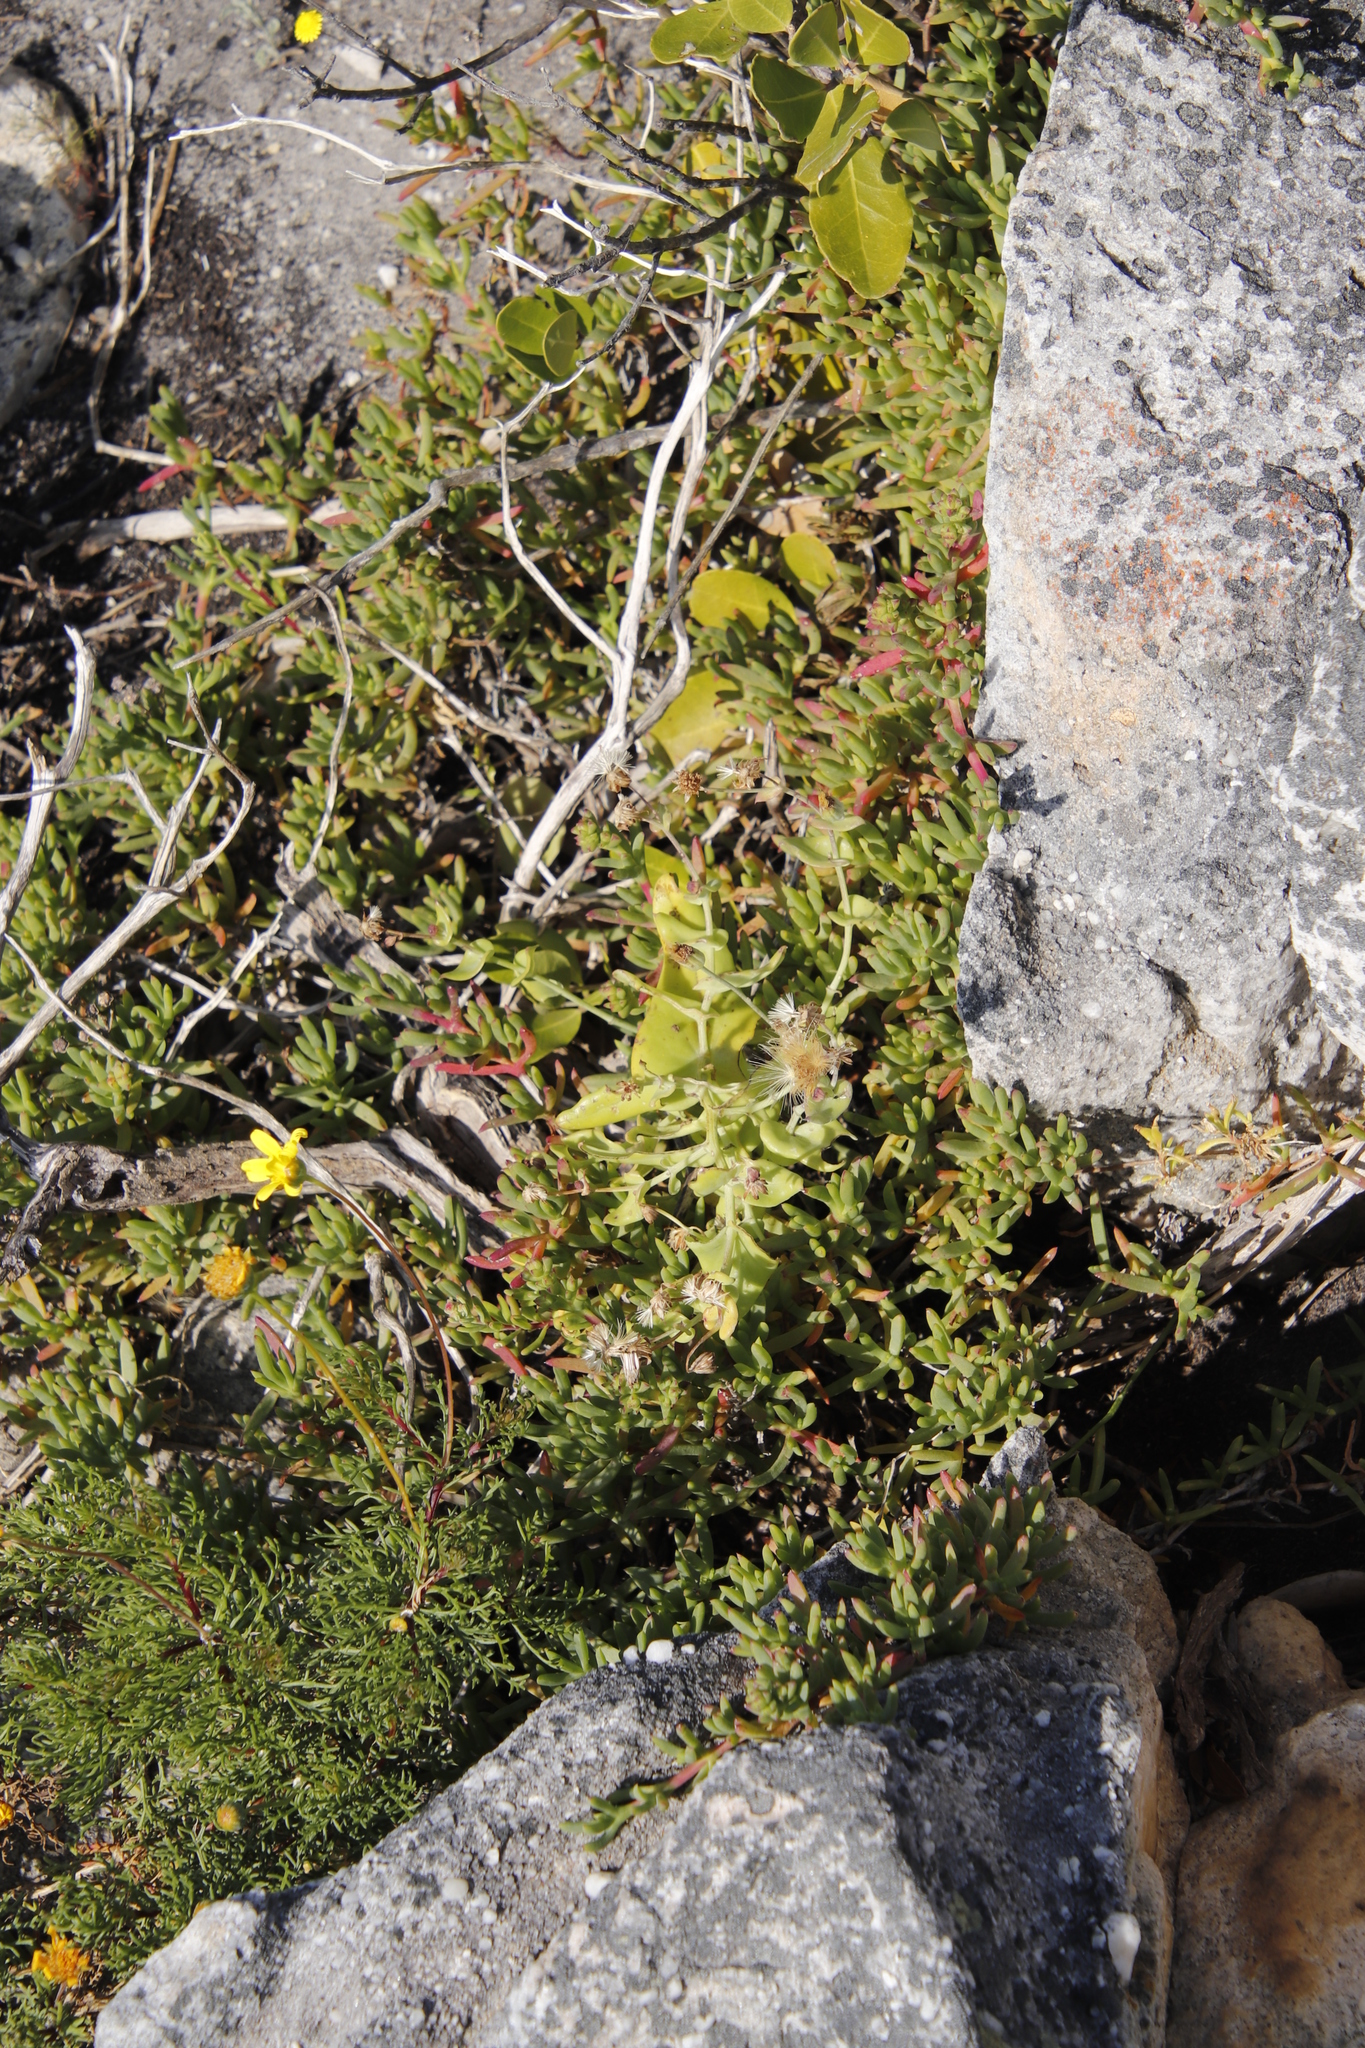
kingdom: Plantae
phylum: Tracheophyta
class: Magnoliopsida
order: Asterales
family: Asteraceae
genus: Othonna
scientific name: Othonna undulosa
